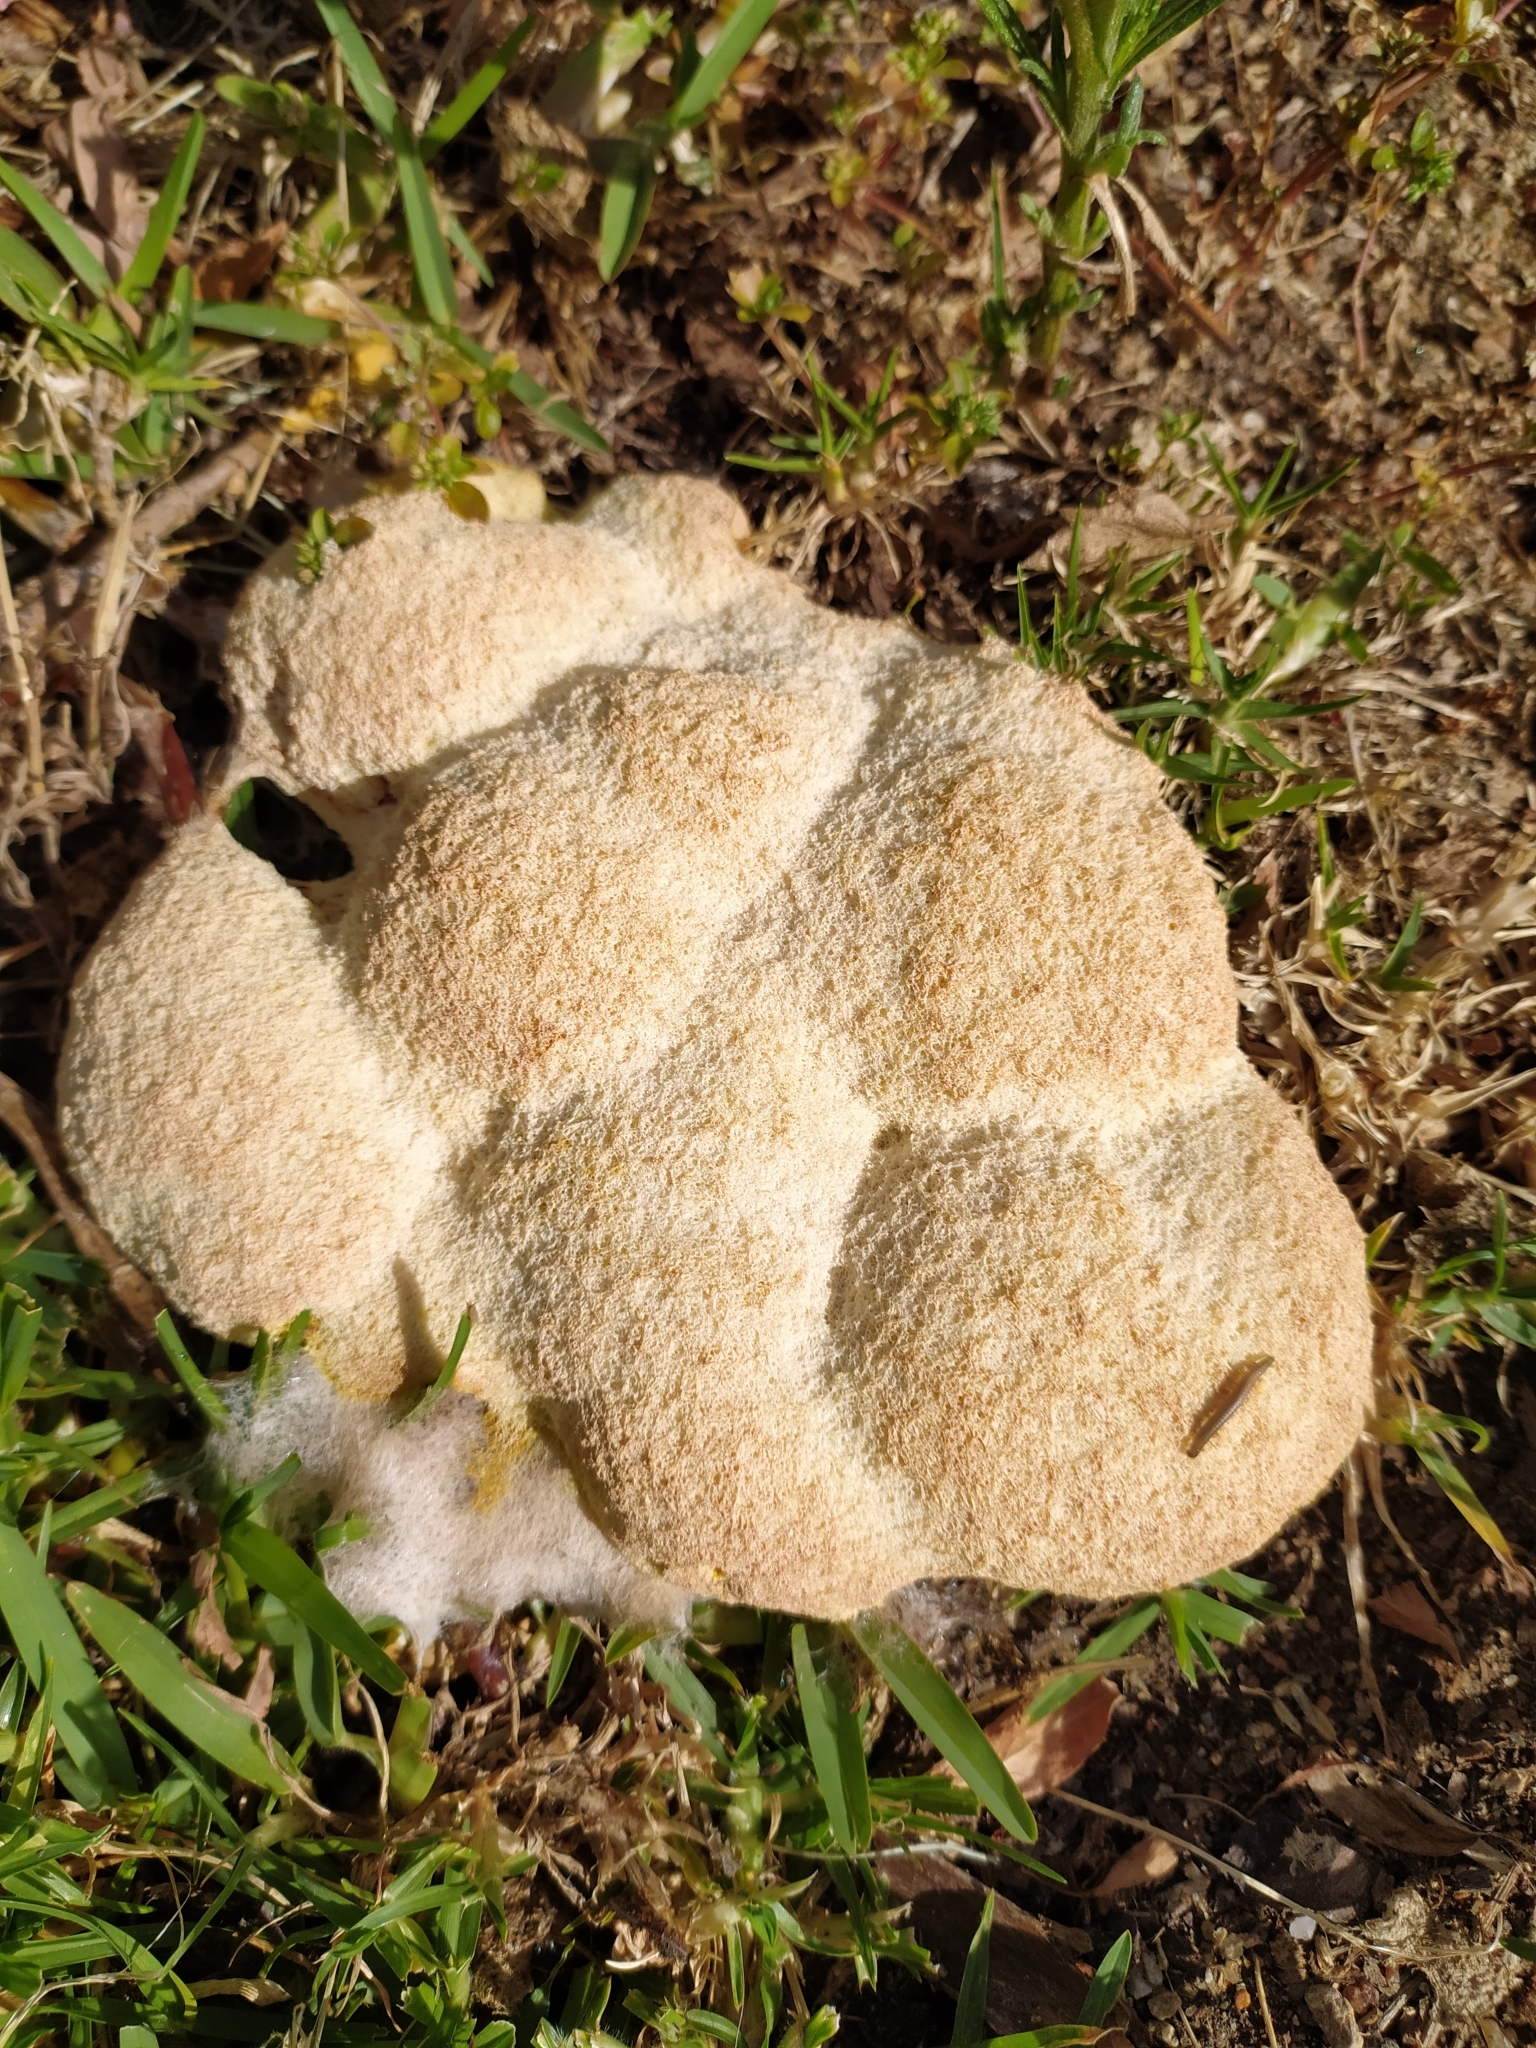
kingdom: Protozoa
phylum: Mycetozoa
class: Myxomycetes
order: Physarales
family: Physaraceae
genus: Fuligo
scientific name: Fuligo septica
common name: Dog vomit slime mold
